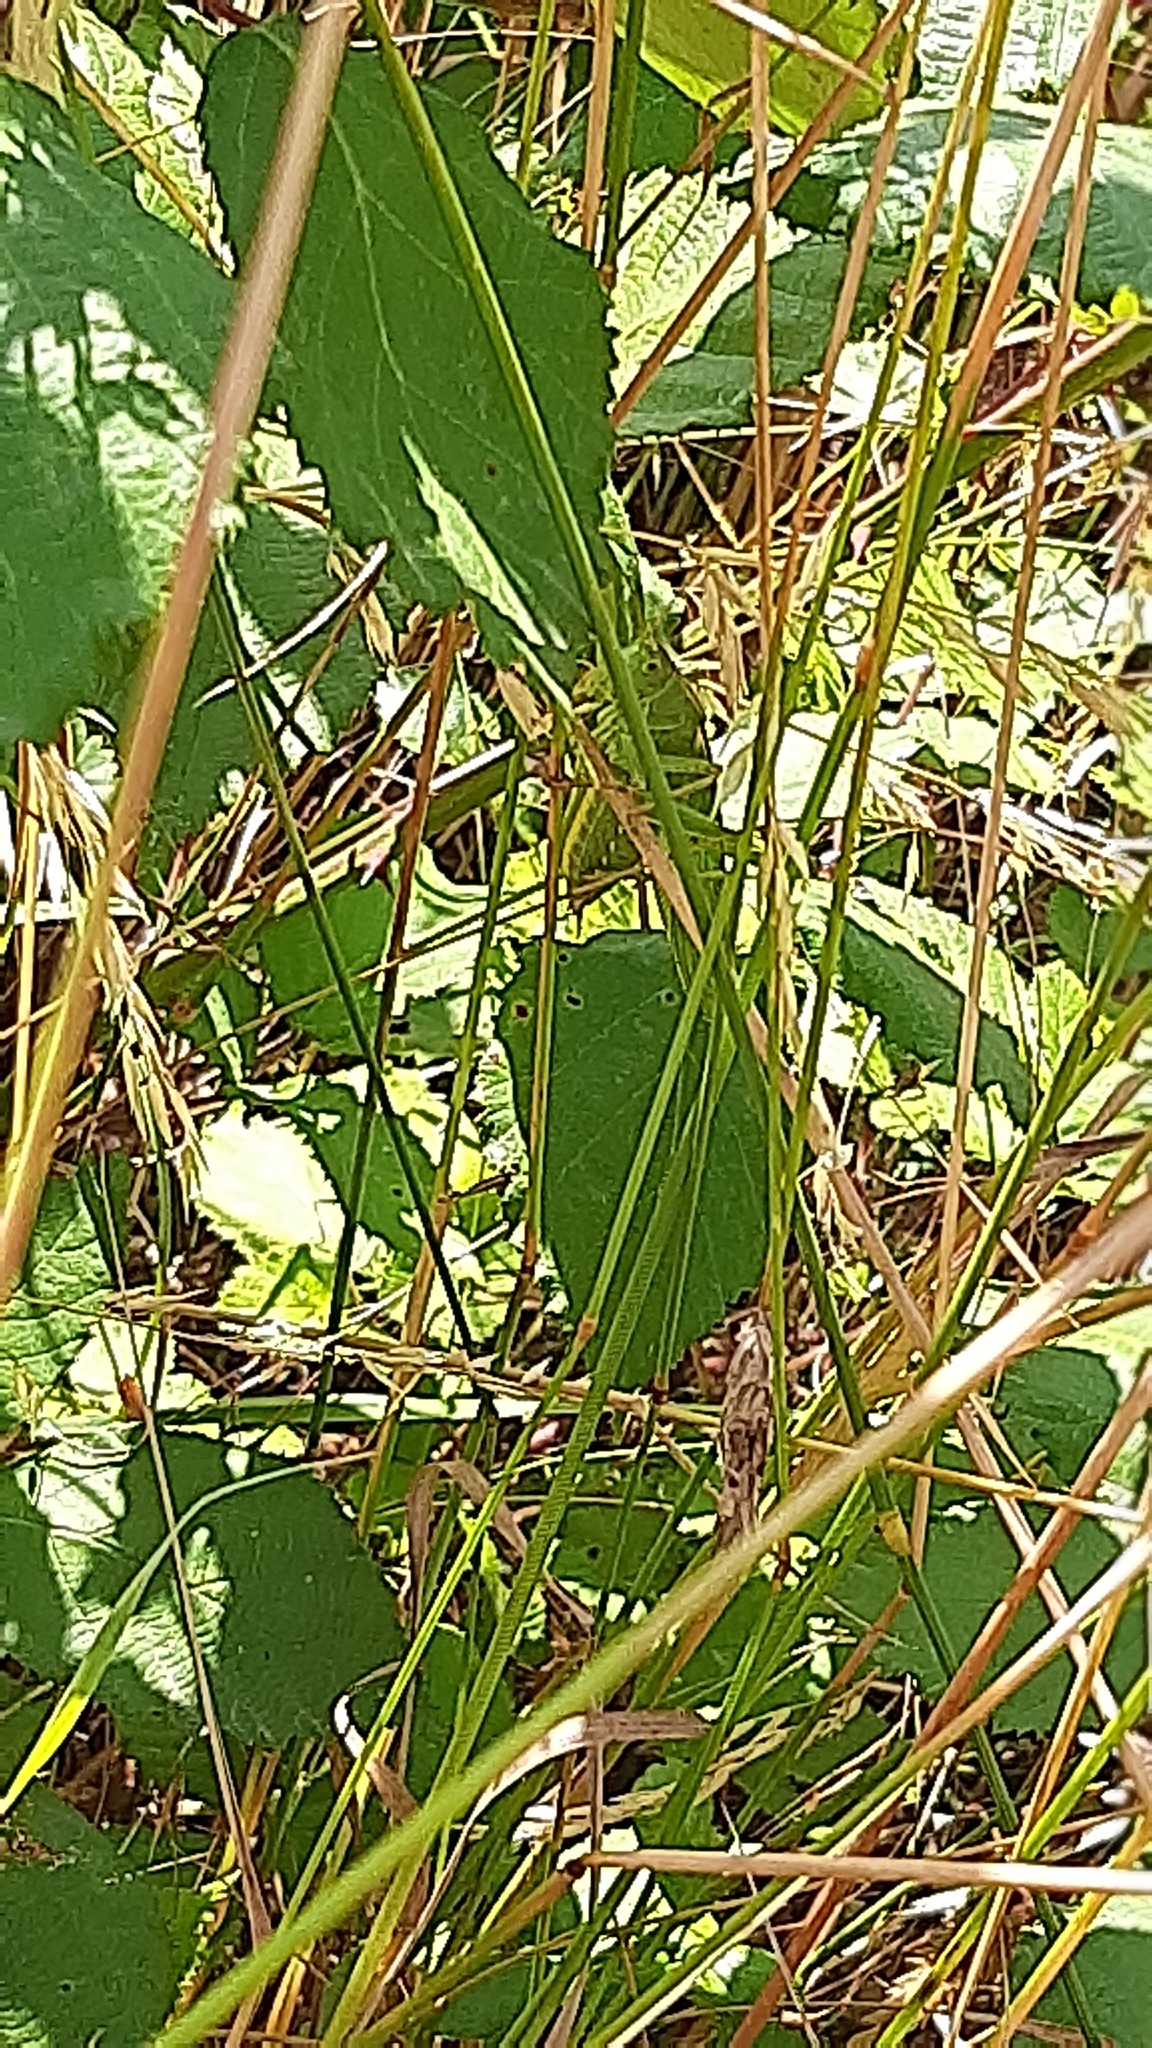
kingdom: Animalia
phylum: Arthropoda
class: Insecta
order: Orthoptera
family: Tettigoniidae
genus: Tettigonia
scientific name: Tettigonia viridissima
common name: Great green bush-cricket
